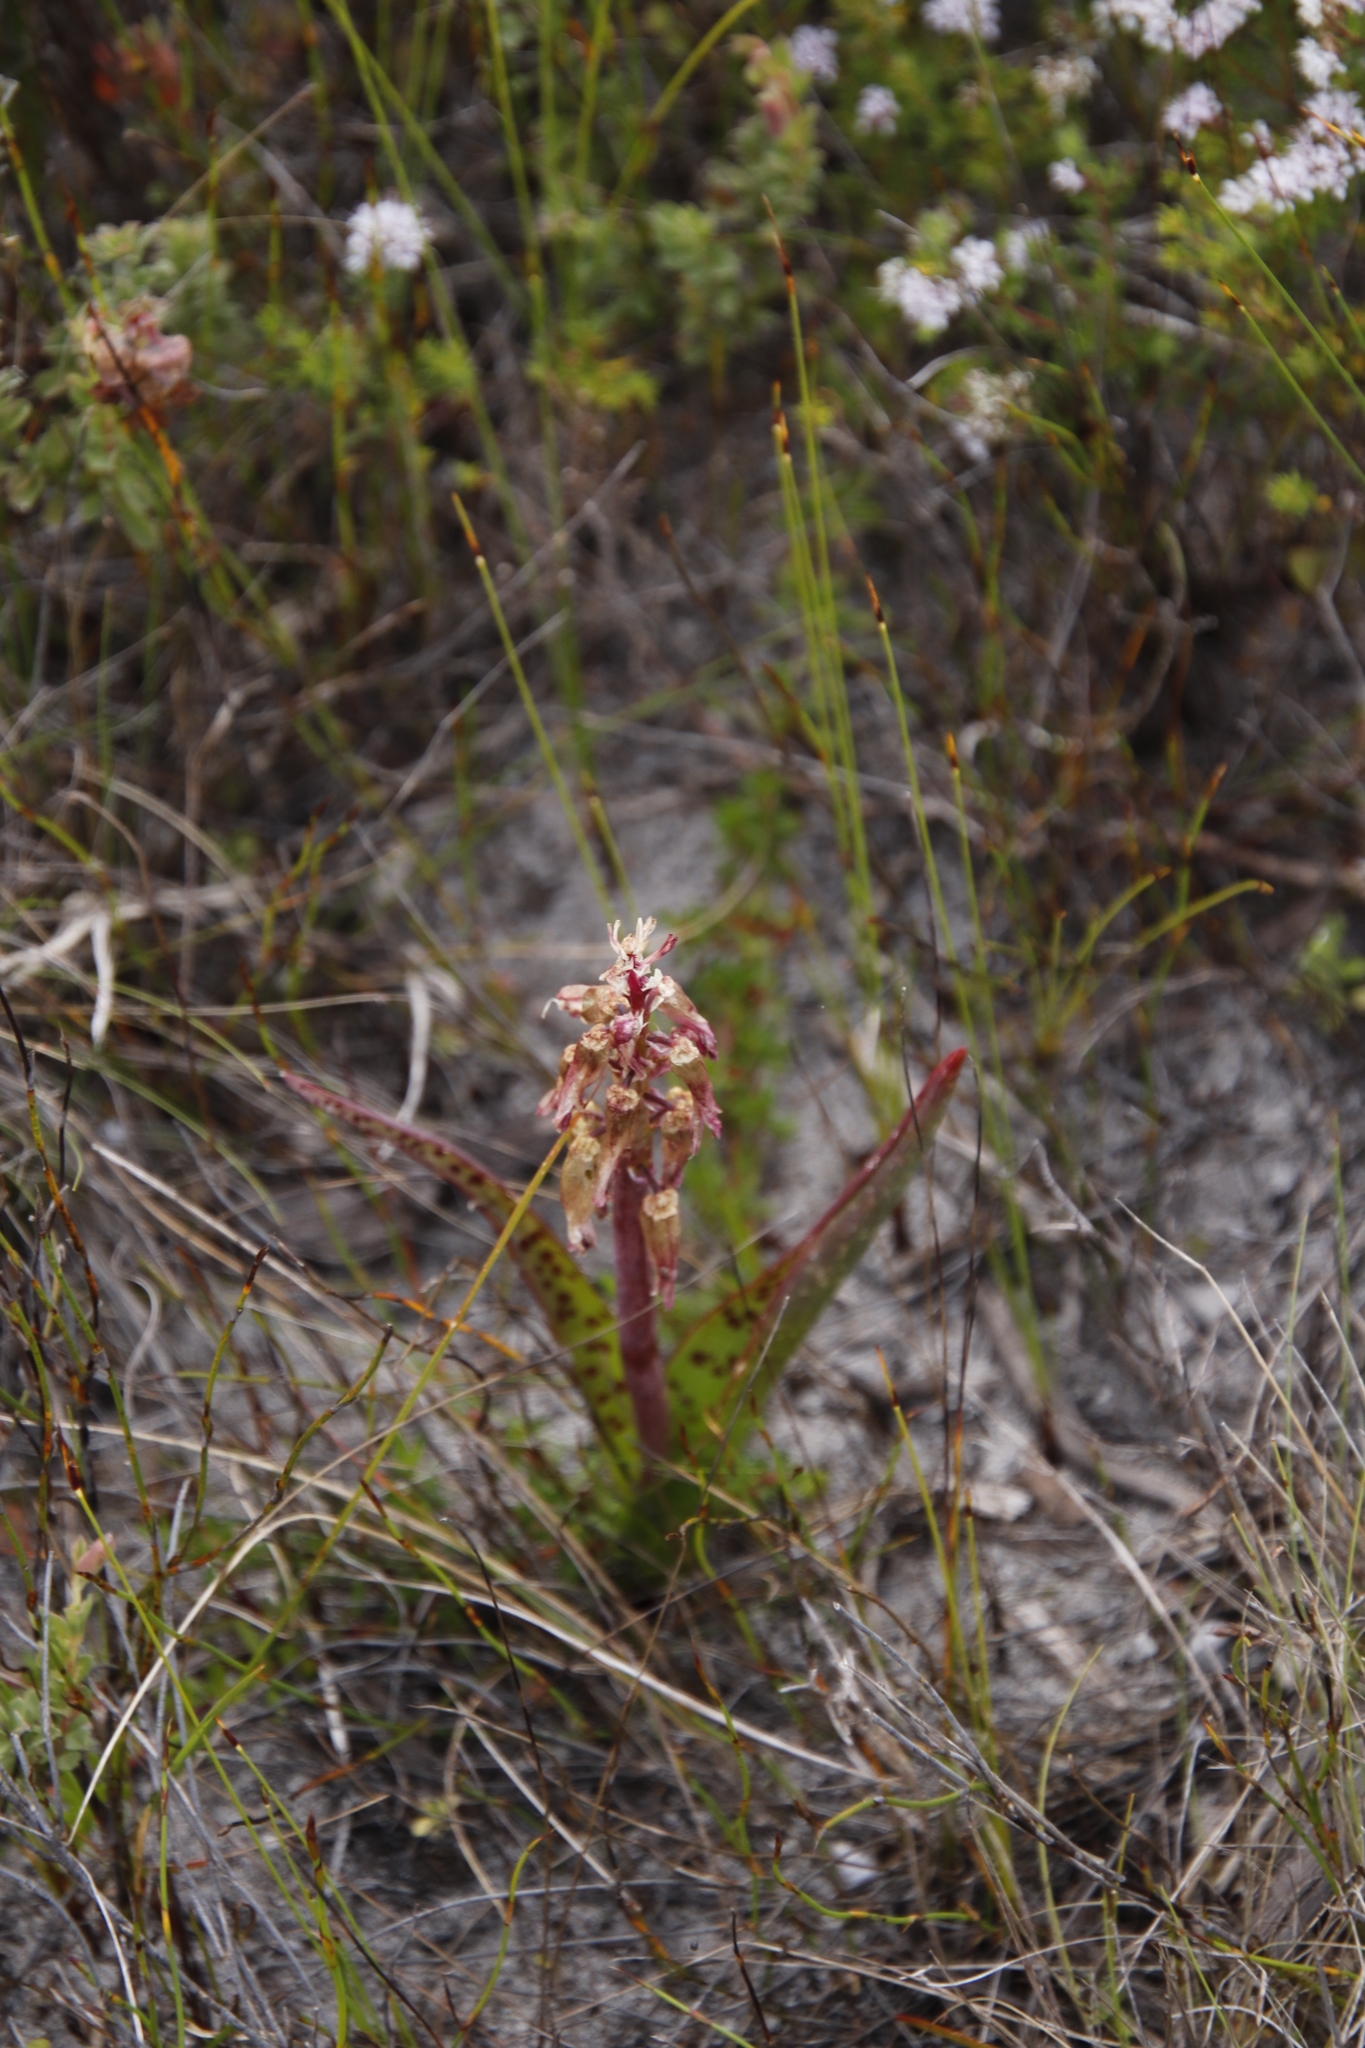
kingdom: Plantae
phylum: Tracheophyta
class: Liliopsida
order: Asparagales
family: Asparagaceae
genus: Lachenalia
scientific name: Lachenalia bulbifera
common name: Red lachenalia
